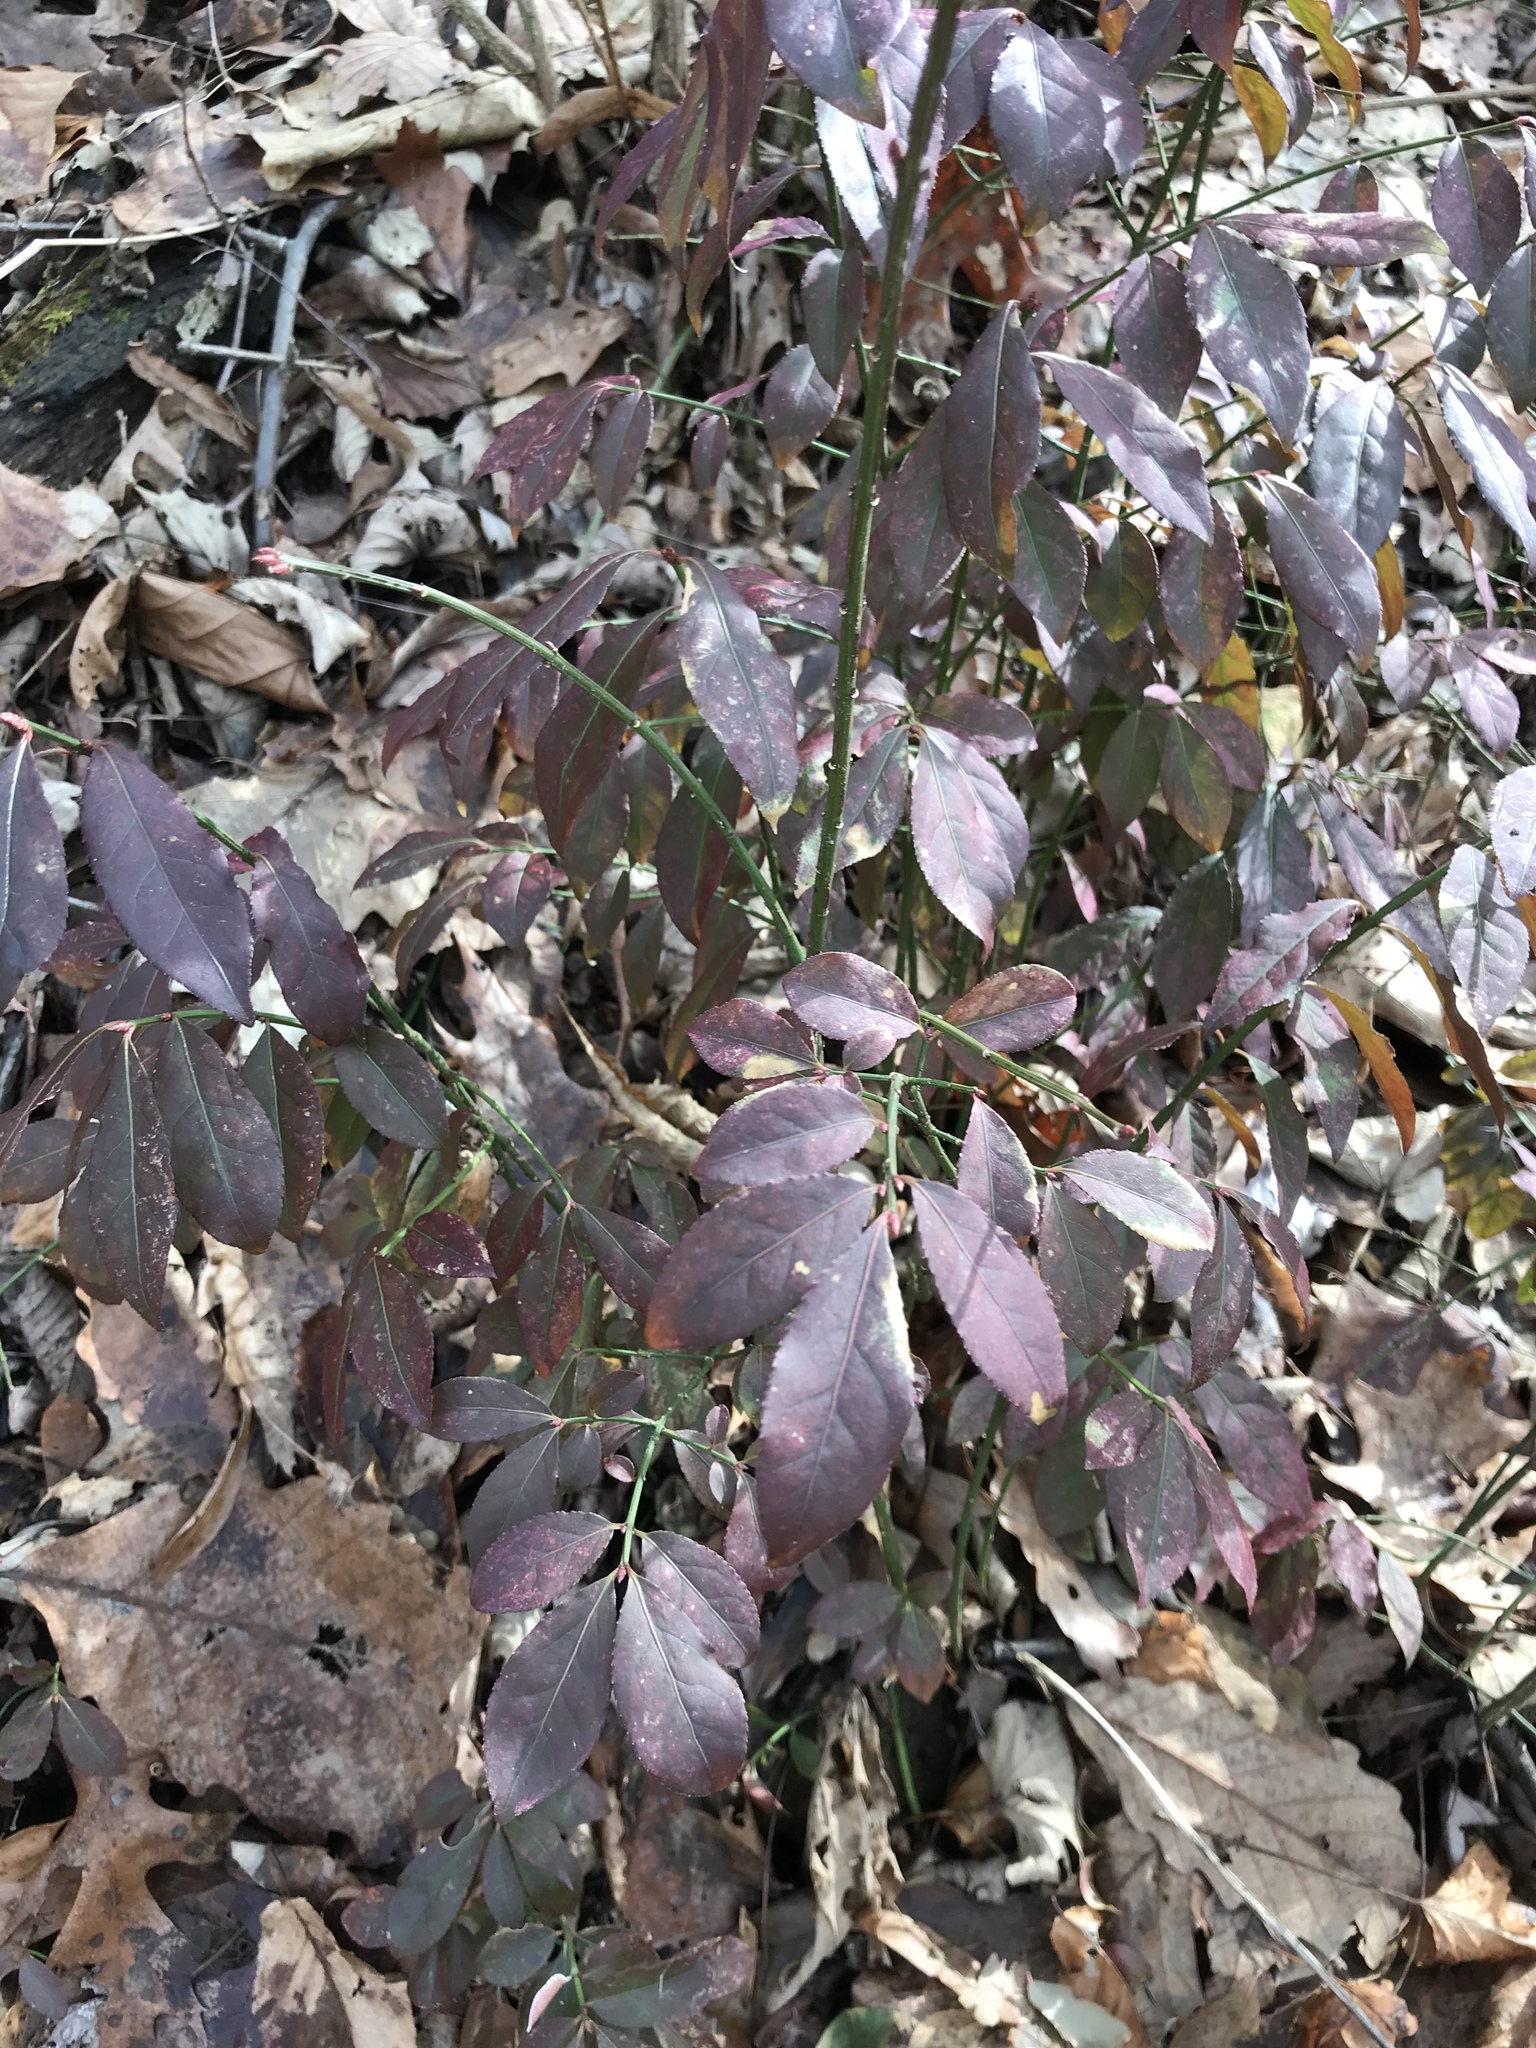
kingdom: Plantae
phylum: Tracheophyta
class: Magnoliopsida
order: Celastrales
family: Celastraceae
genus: Euonymus
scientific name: Euonymus alatus
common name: Winged euonymus
